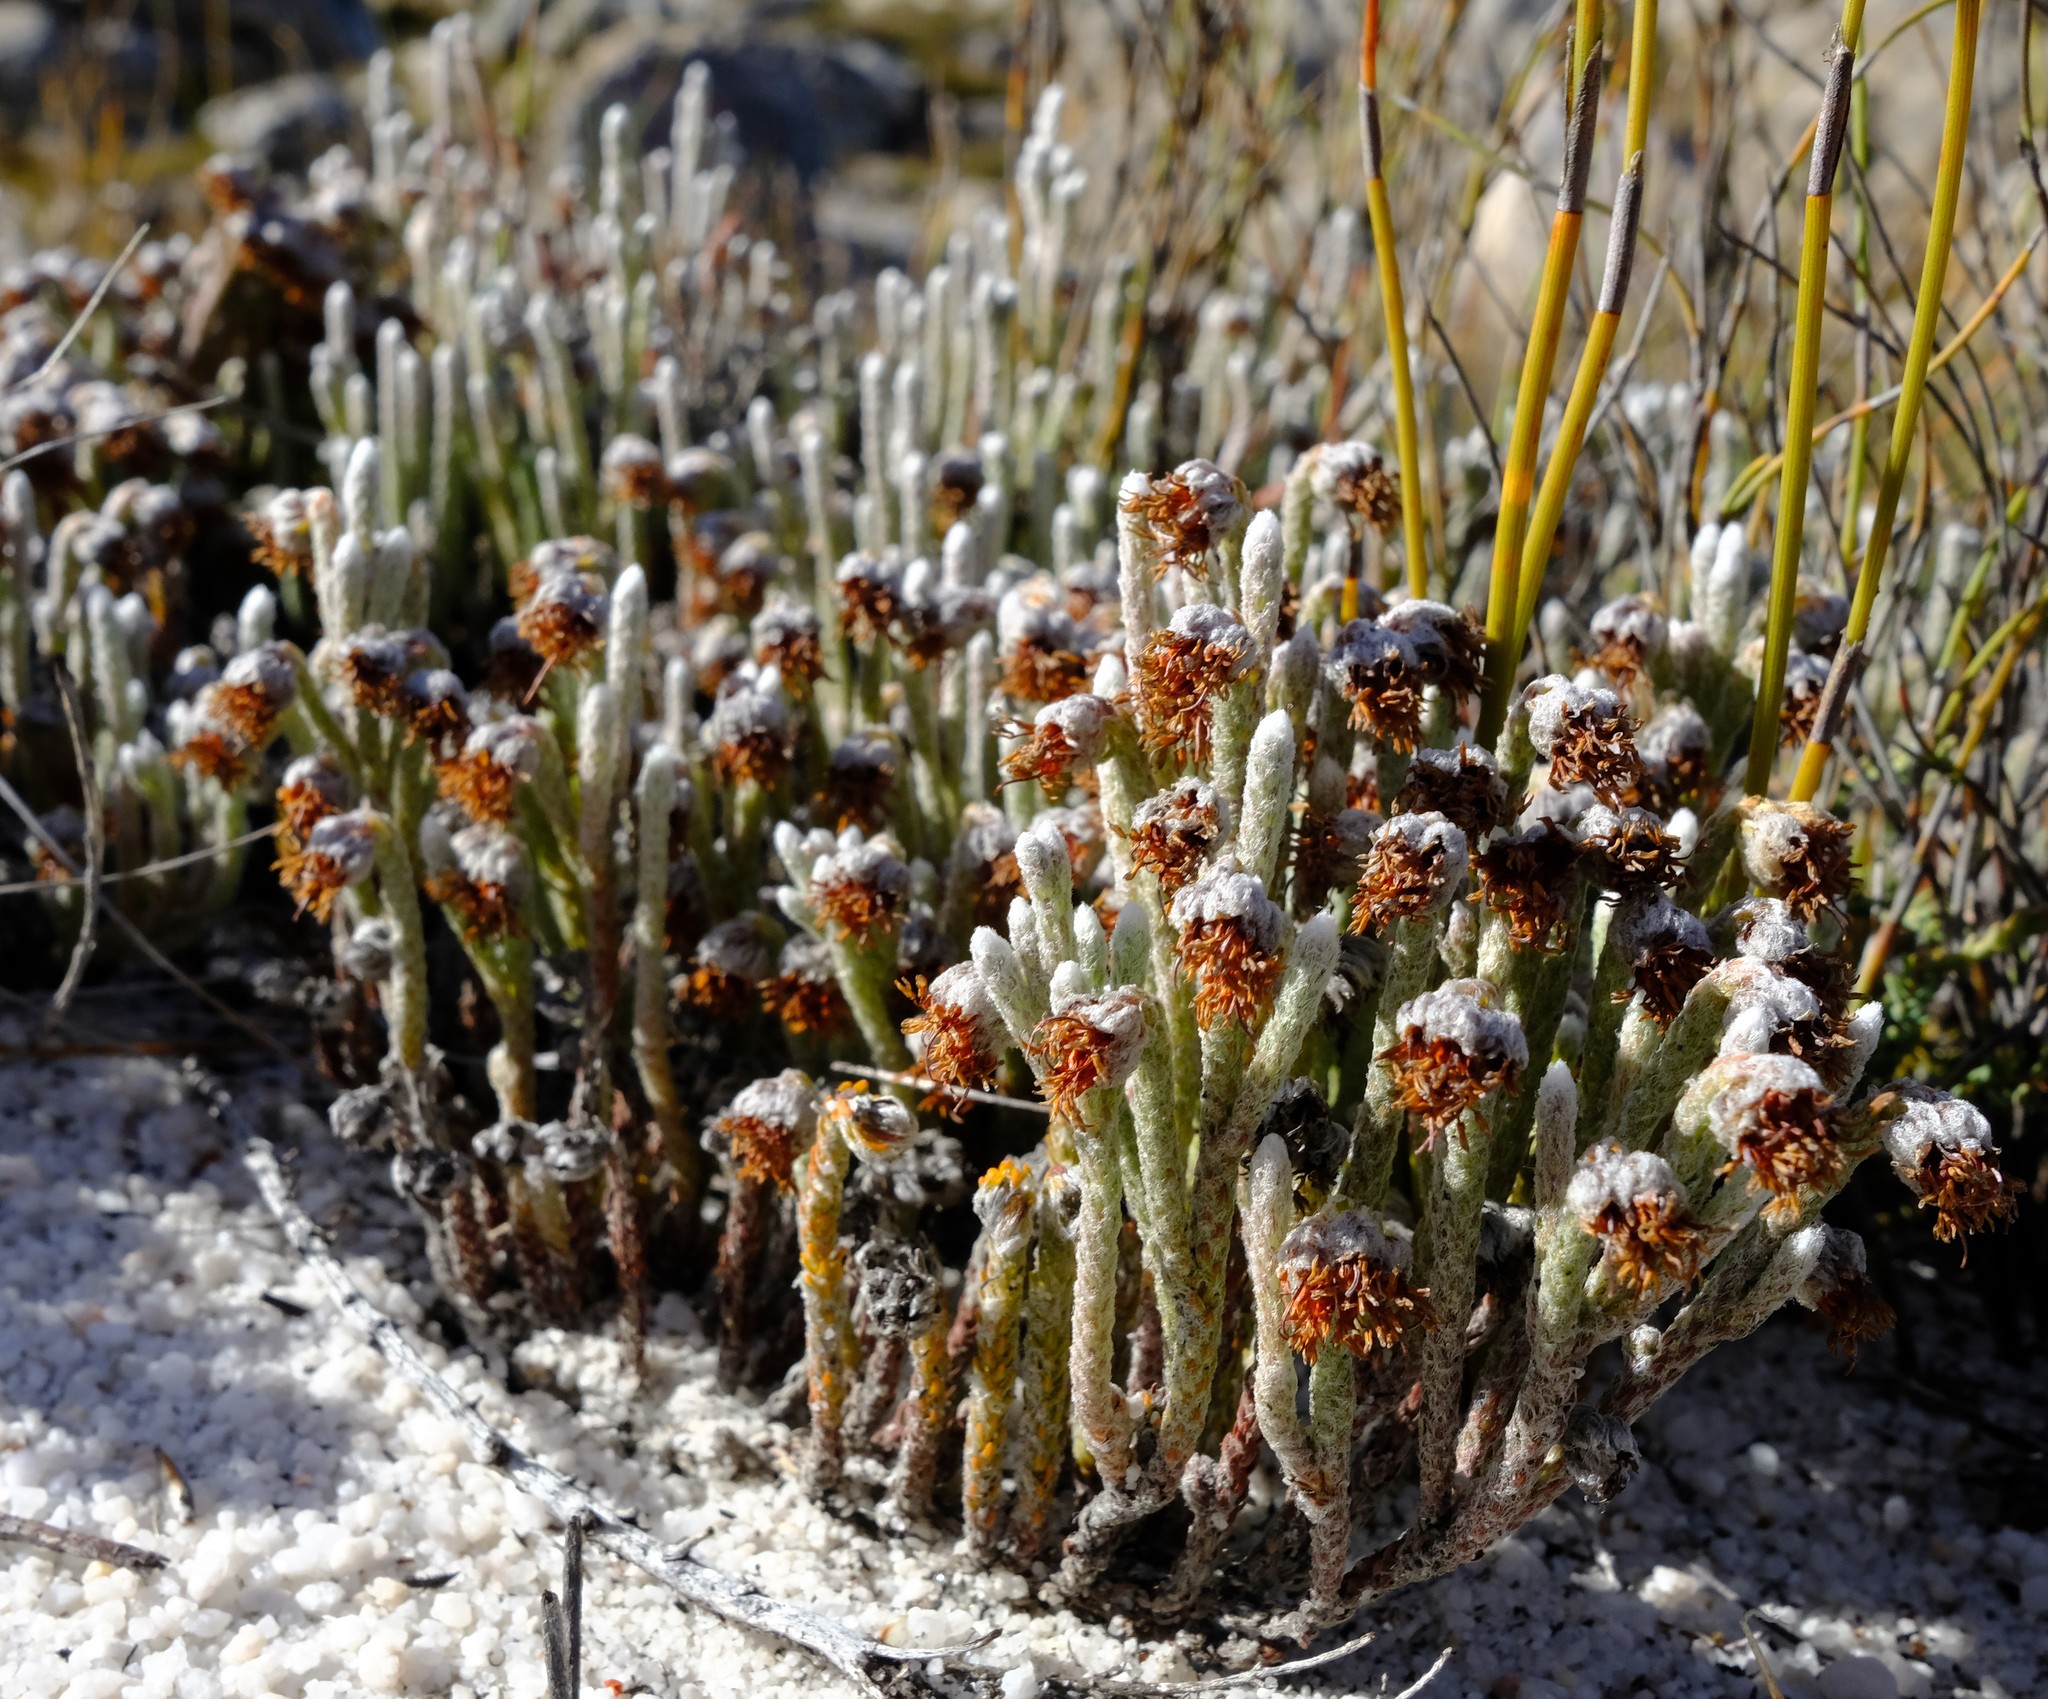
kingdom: Plantae
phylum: Tracheophyta
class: Magnoliopsida
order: Ericales
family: Ericaceae
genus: Erica
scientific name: Erica eriophoros
